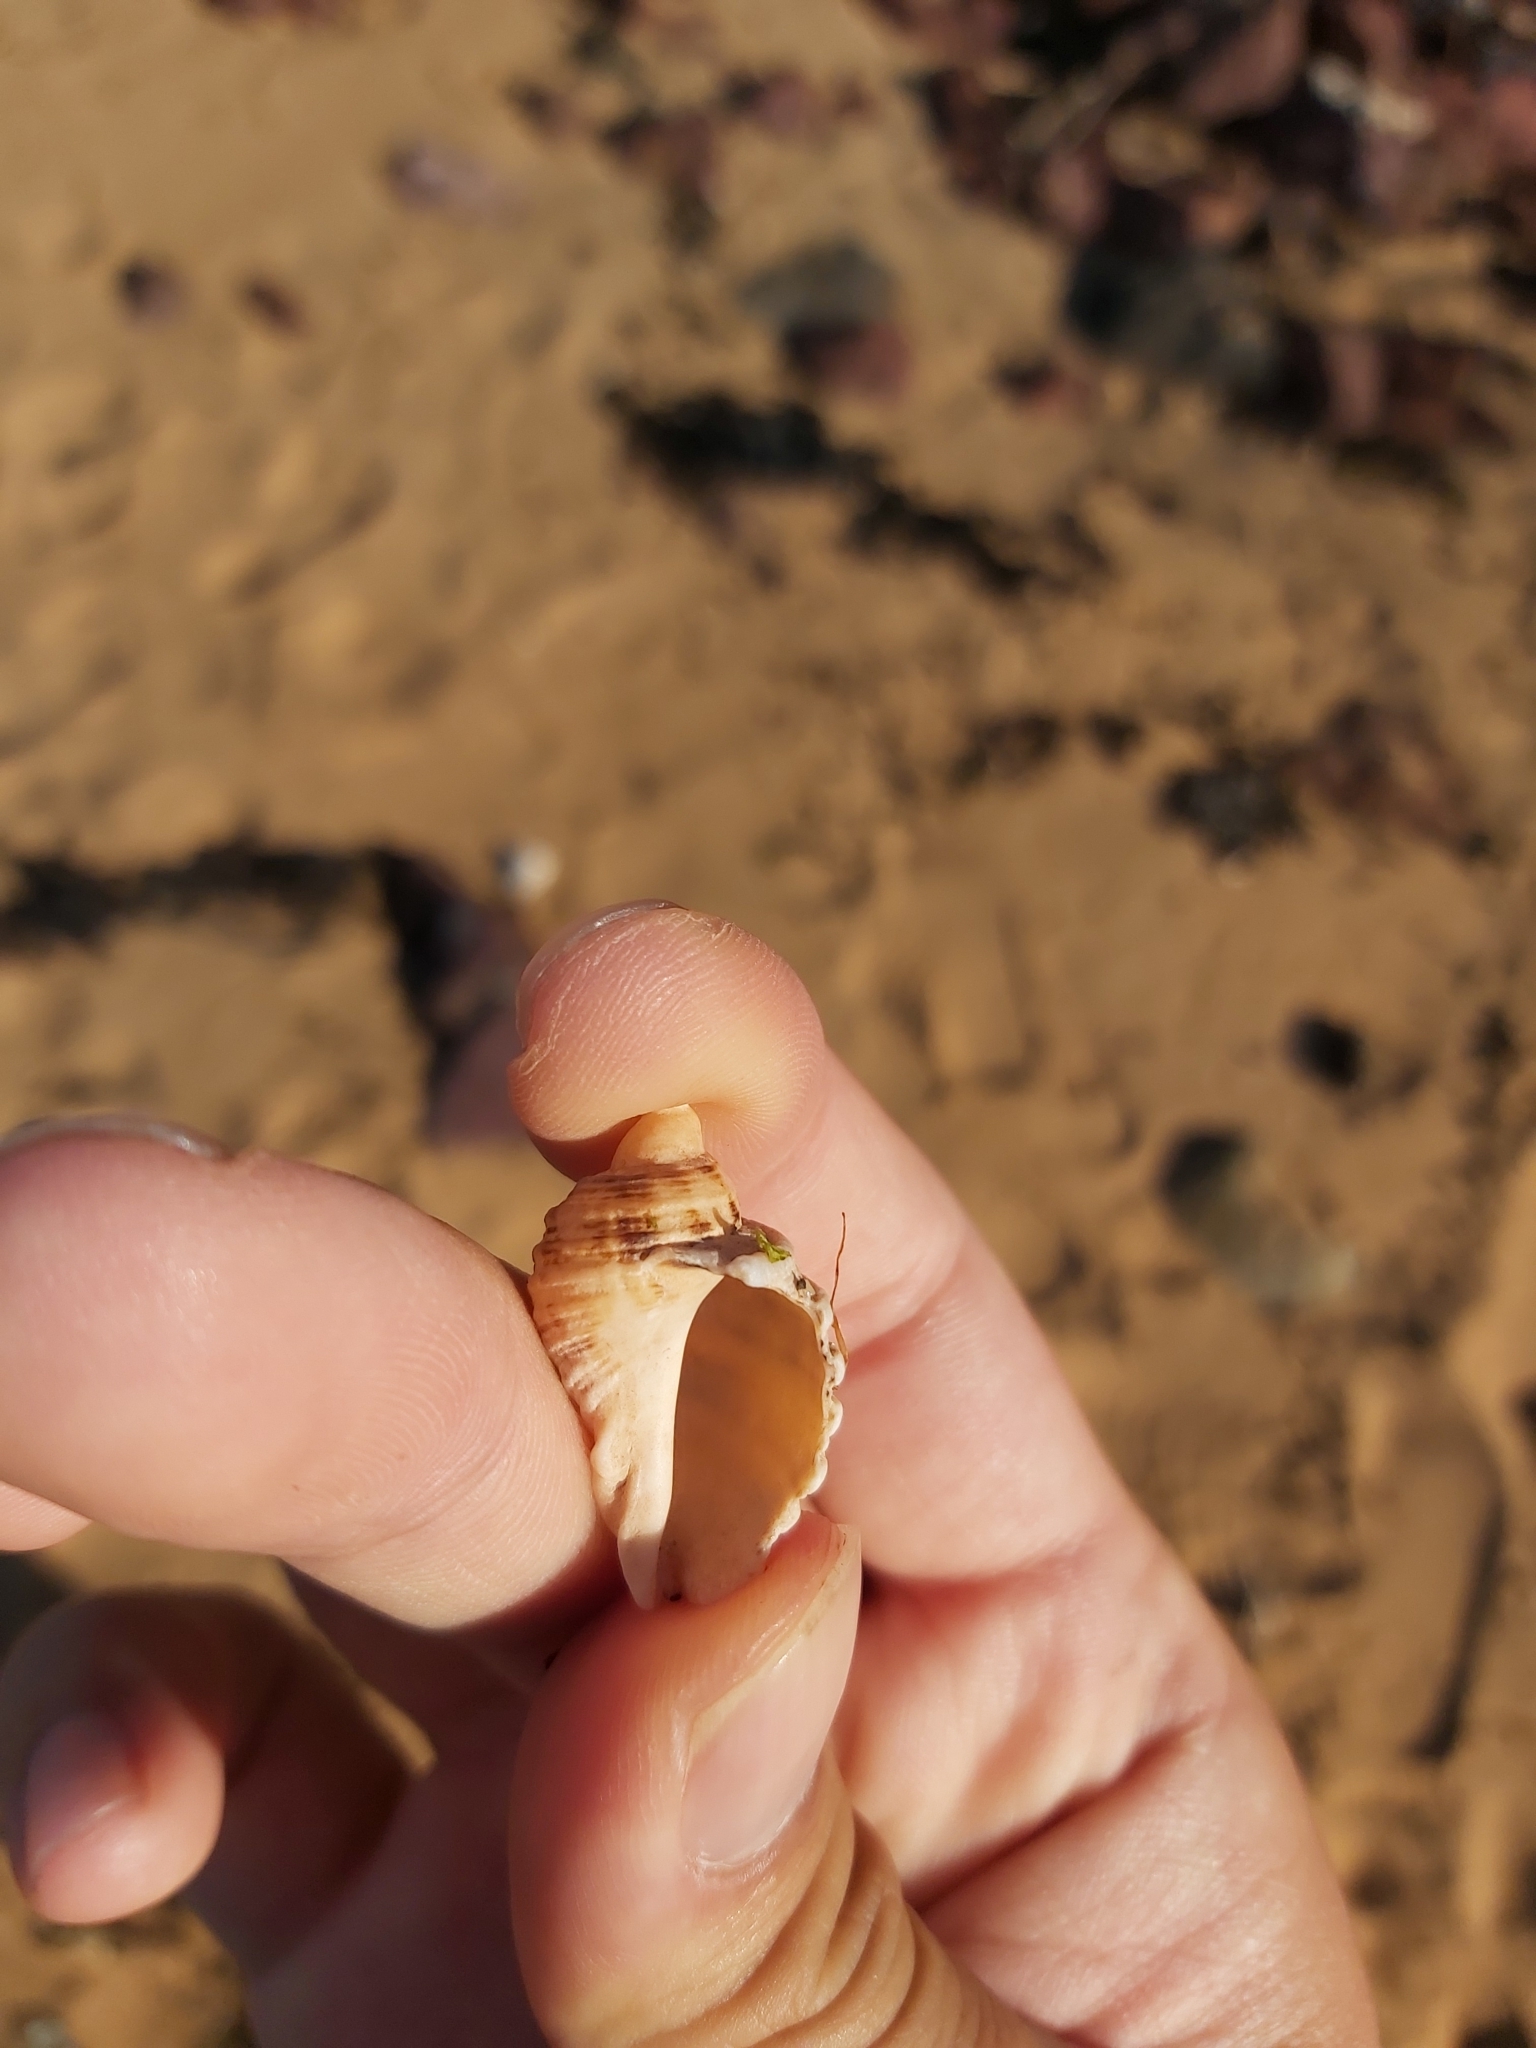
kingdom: Animalia
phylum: Mollusca
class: Gastropoda
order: Neogastropoda
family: Muricidae
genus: Dicathais
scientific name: Dicathais orbita
